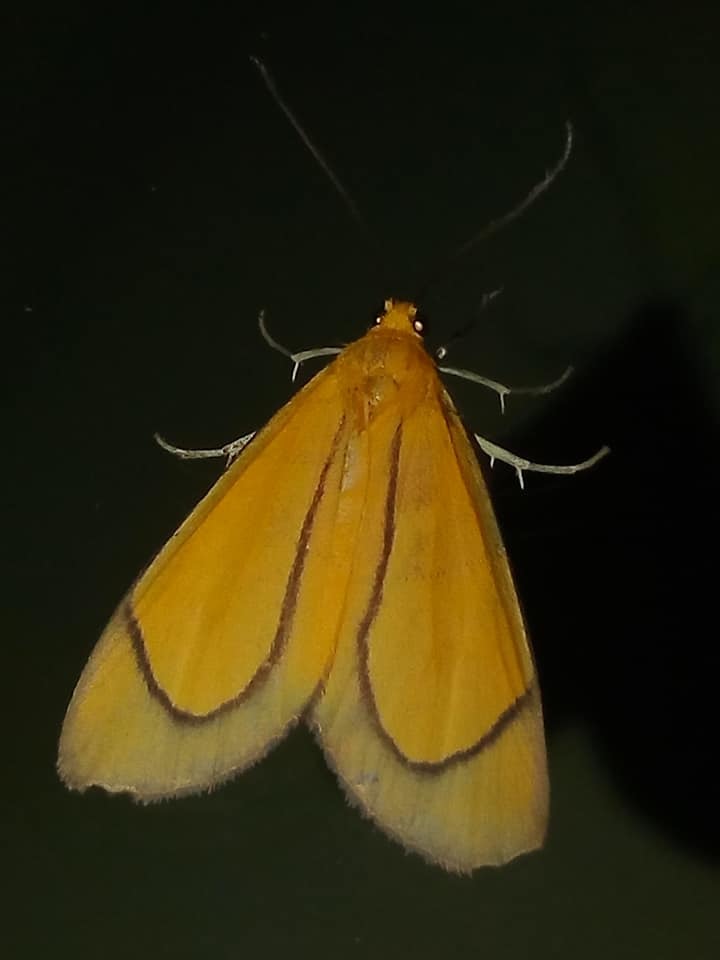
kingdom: Animalia
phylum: Arthropoda
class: Insecta
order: Lepidoptera
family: Notodontidae
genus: Oricia
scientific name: Oricia truncata
